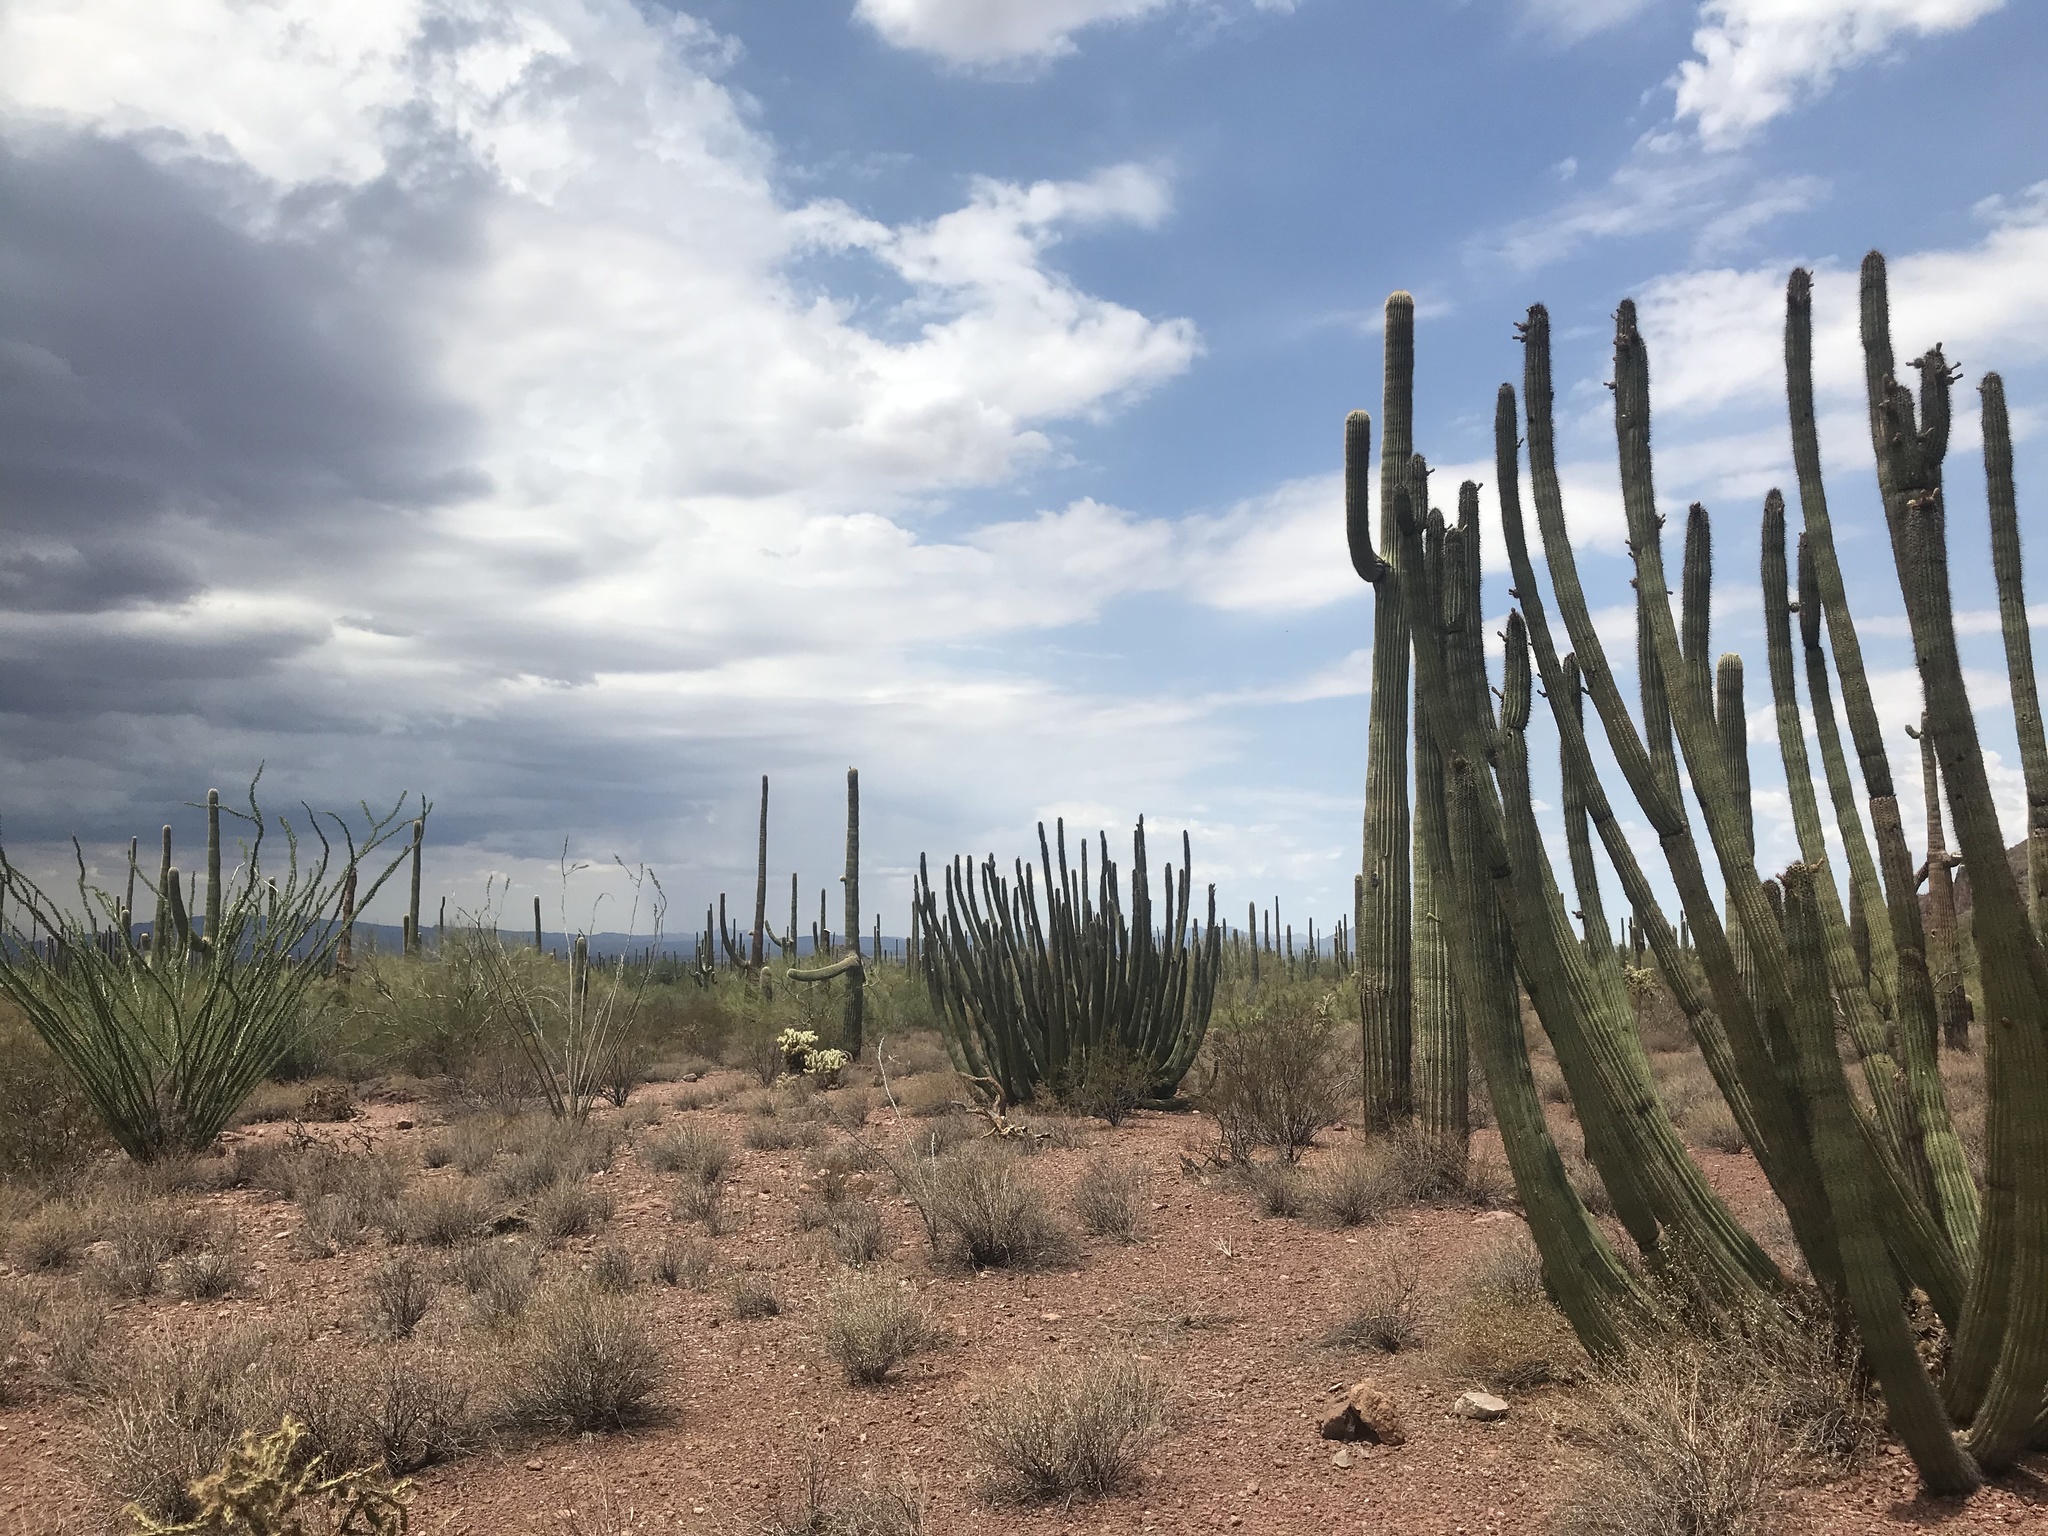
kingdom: Plantae
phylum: Tracheophyta
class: Magnoliopsida
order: Caryophyllales
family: Cactaceae
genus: Stenocereus
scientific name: Stenocereus thurberi
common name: Organ pipe cactus
